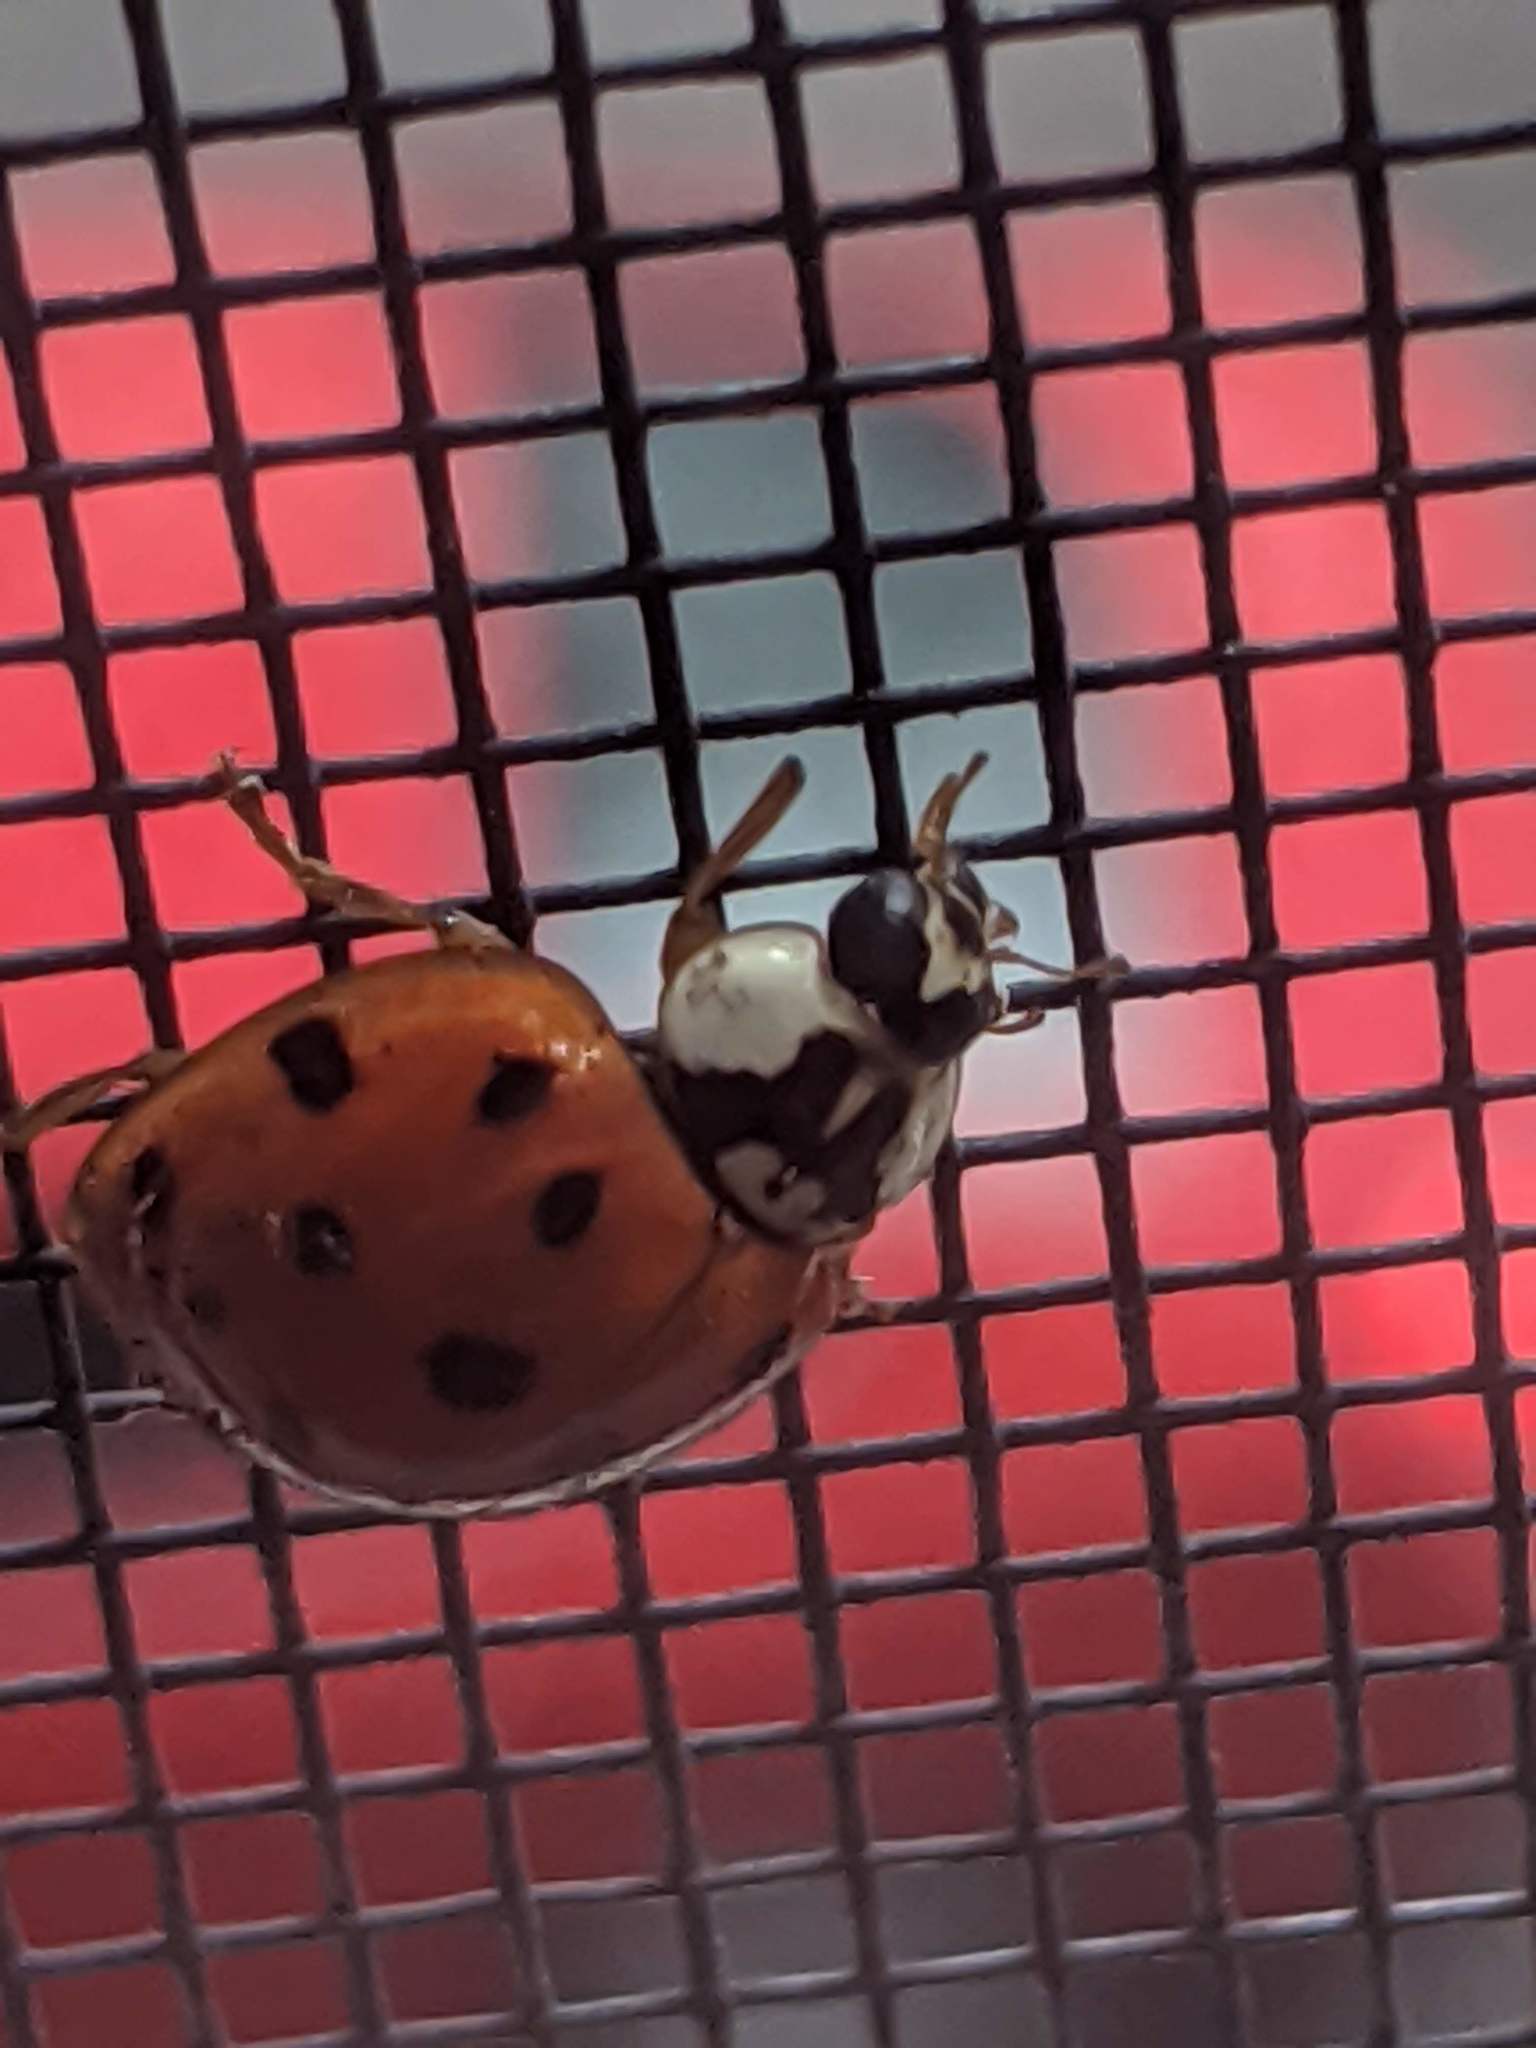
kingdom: Animalia
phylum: Arthropoda
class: Insecta
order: Coleoptera
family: Coccinellidae
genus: Harmonia
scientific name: Harmonia axyridis
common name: Harlequin ladybird
